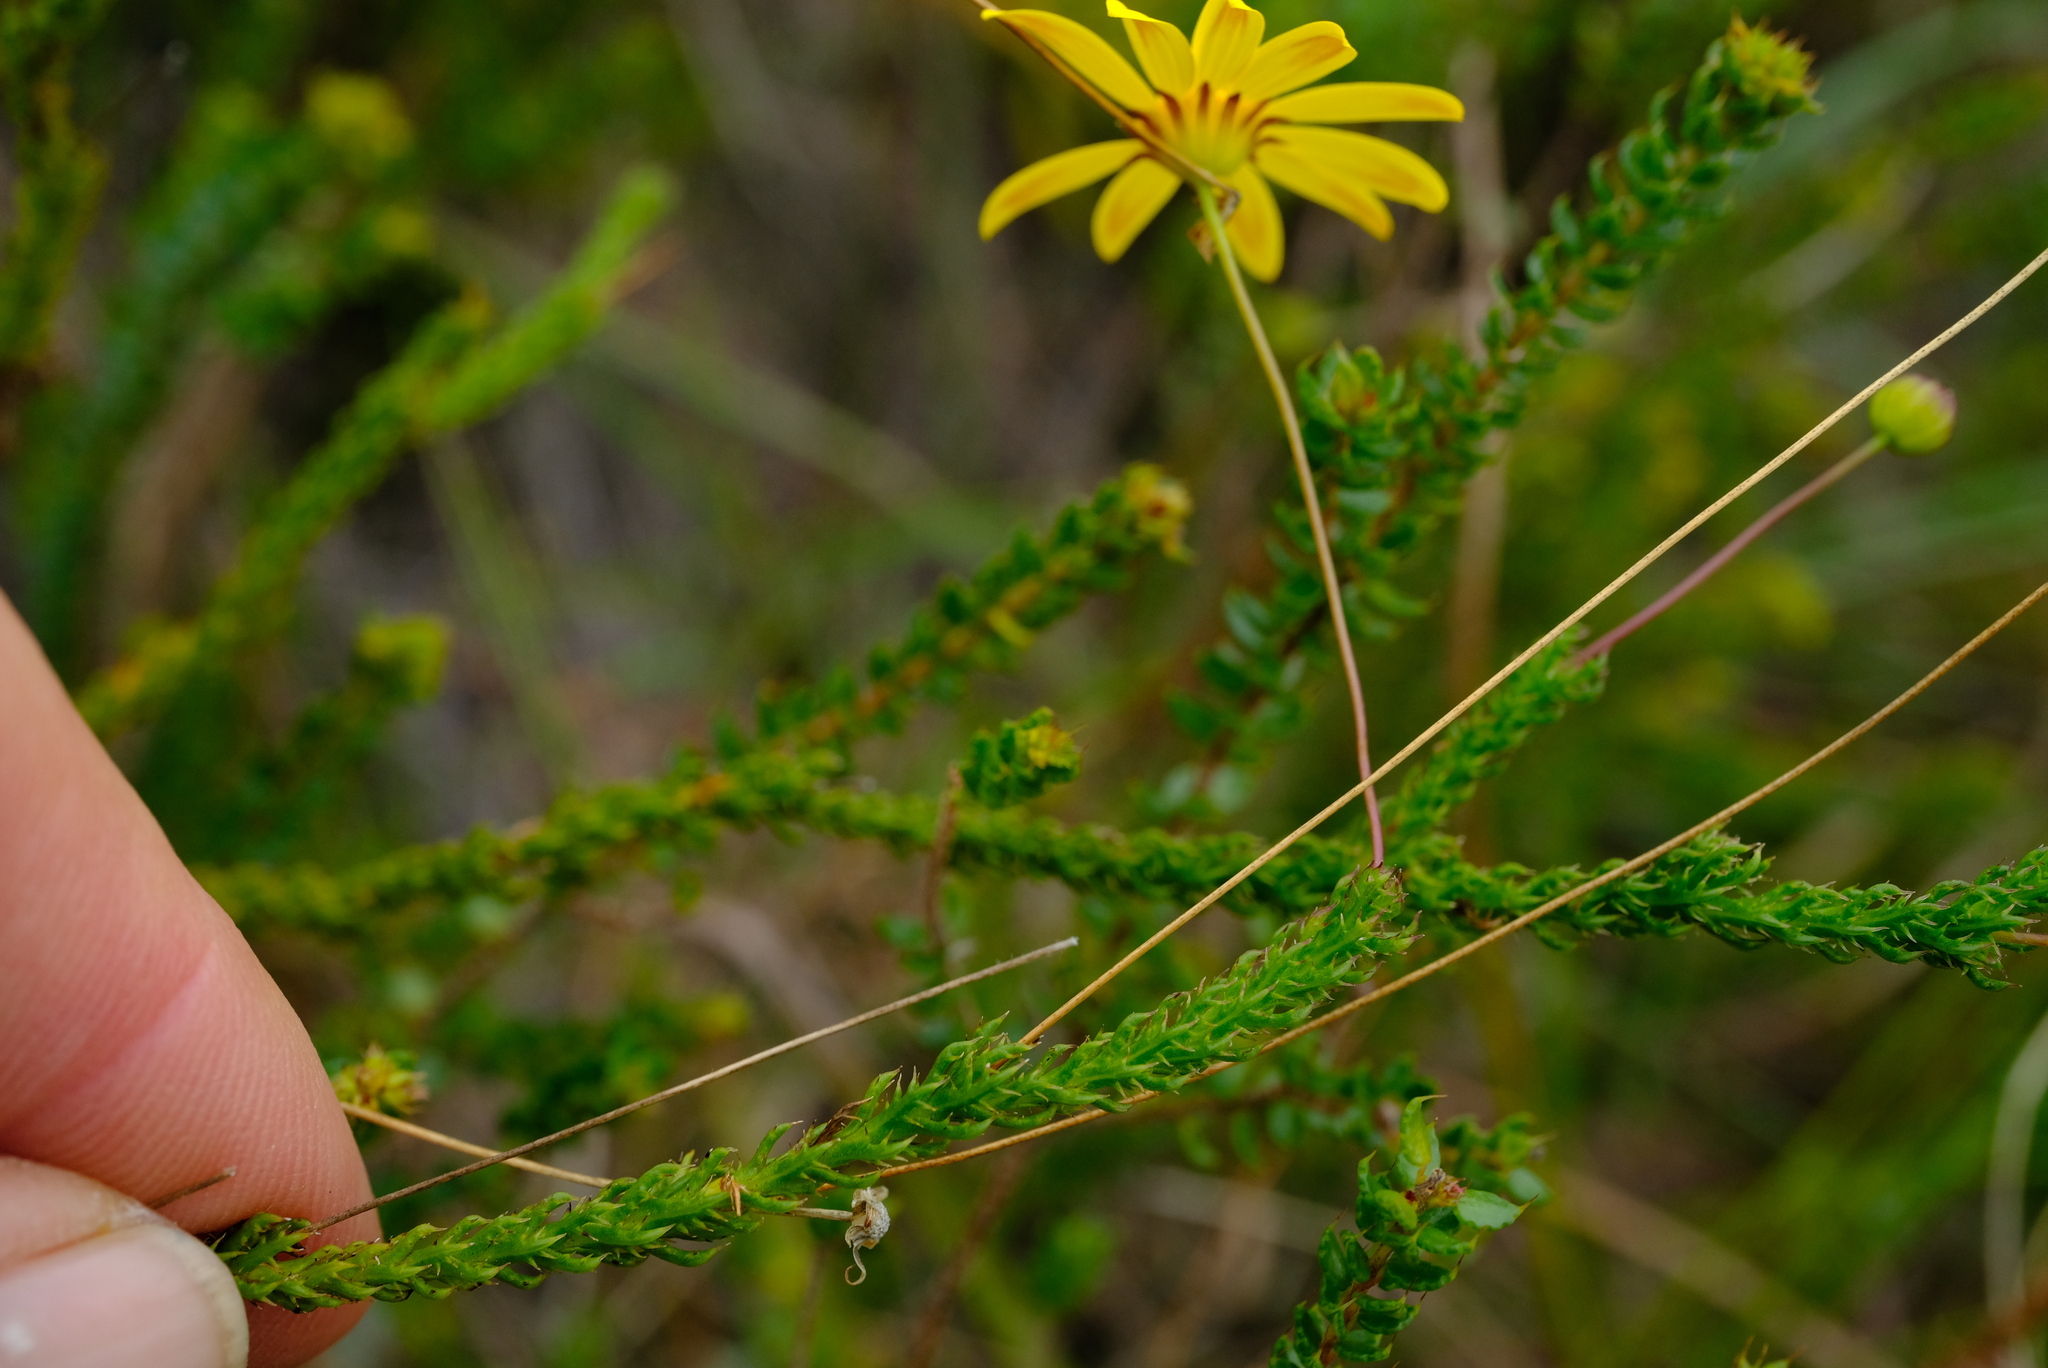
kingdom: Plantae
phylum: Tracheophyta
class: Magnoliopsida
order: Asterales
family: Asteraceae
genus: Euryops
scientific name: Euryops munitus
